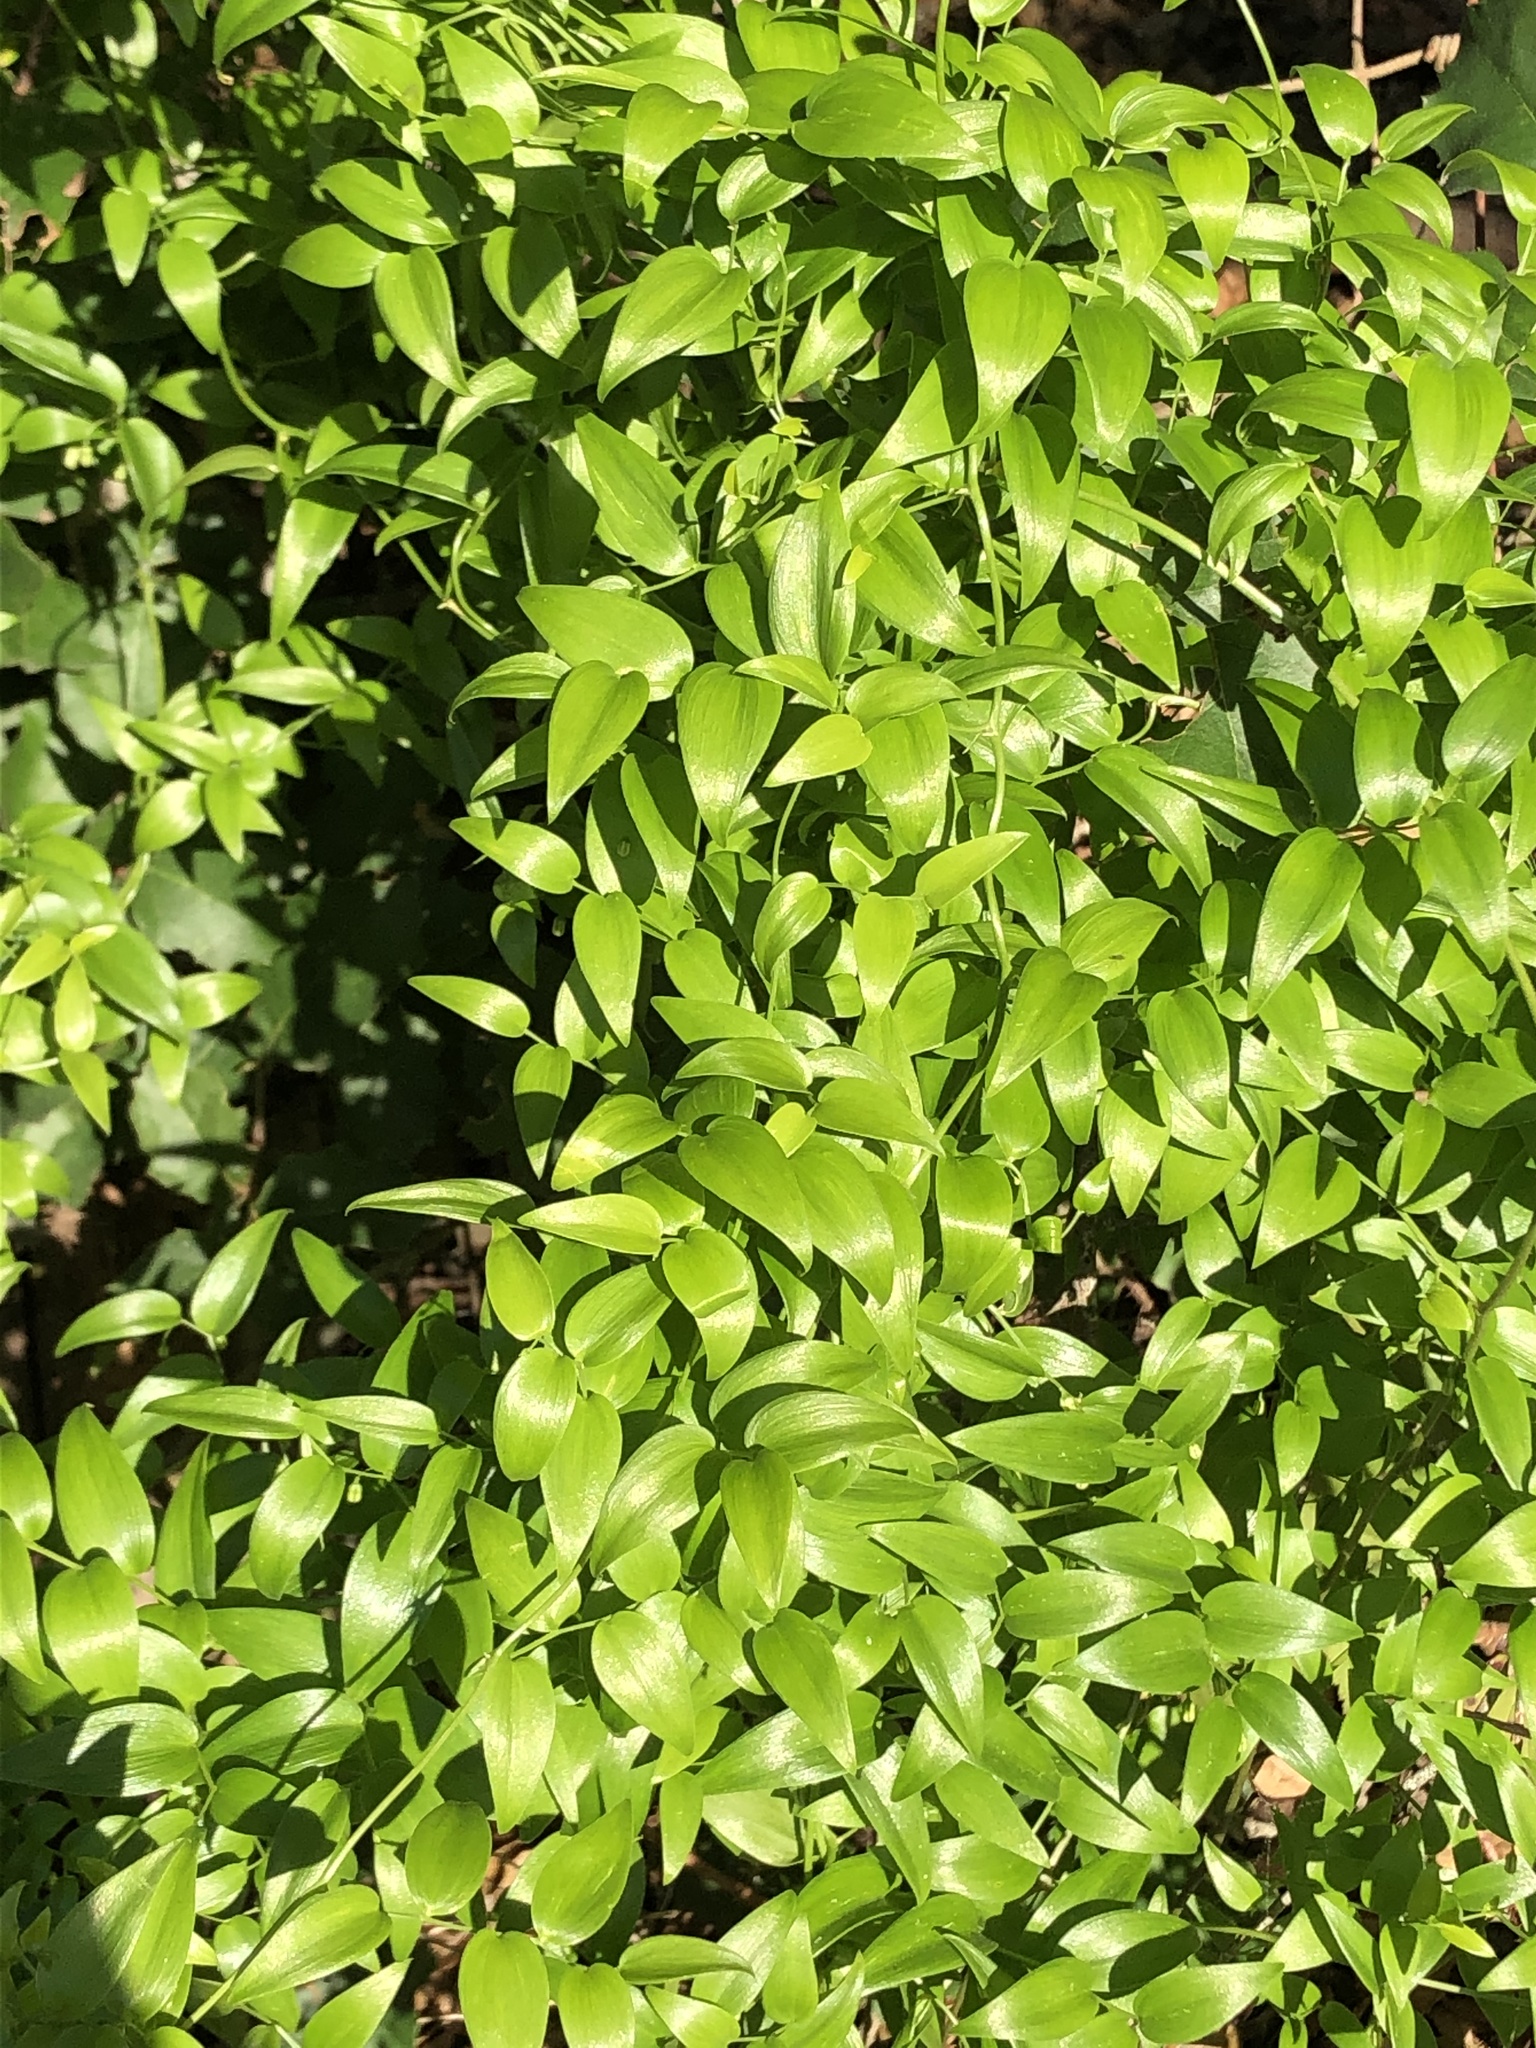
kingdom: Plantae
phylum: Tracheophyta
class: Liliopsida
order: Asparagales
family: Asparagaceae
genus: Asparagus
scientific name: Asparagus asparagoides
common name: African asparagus fern
